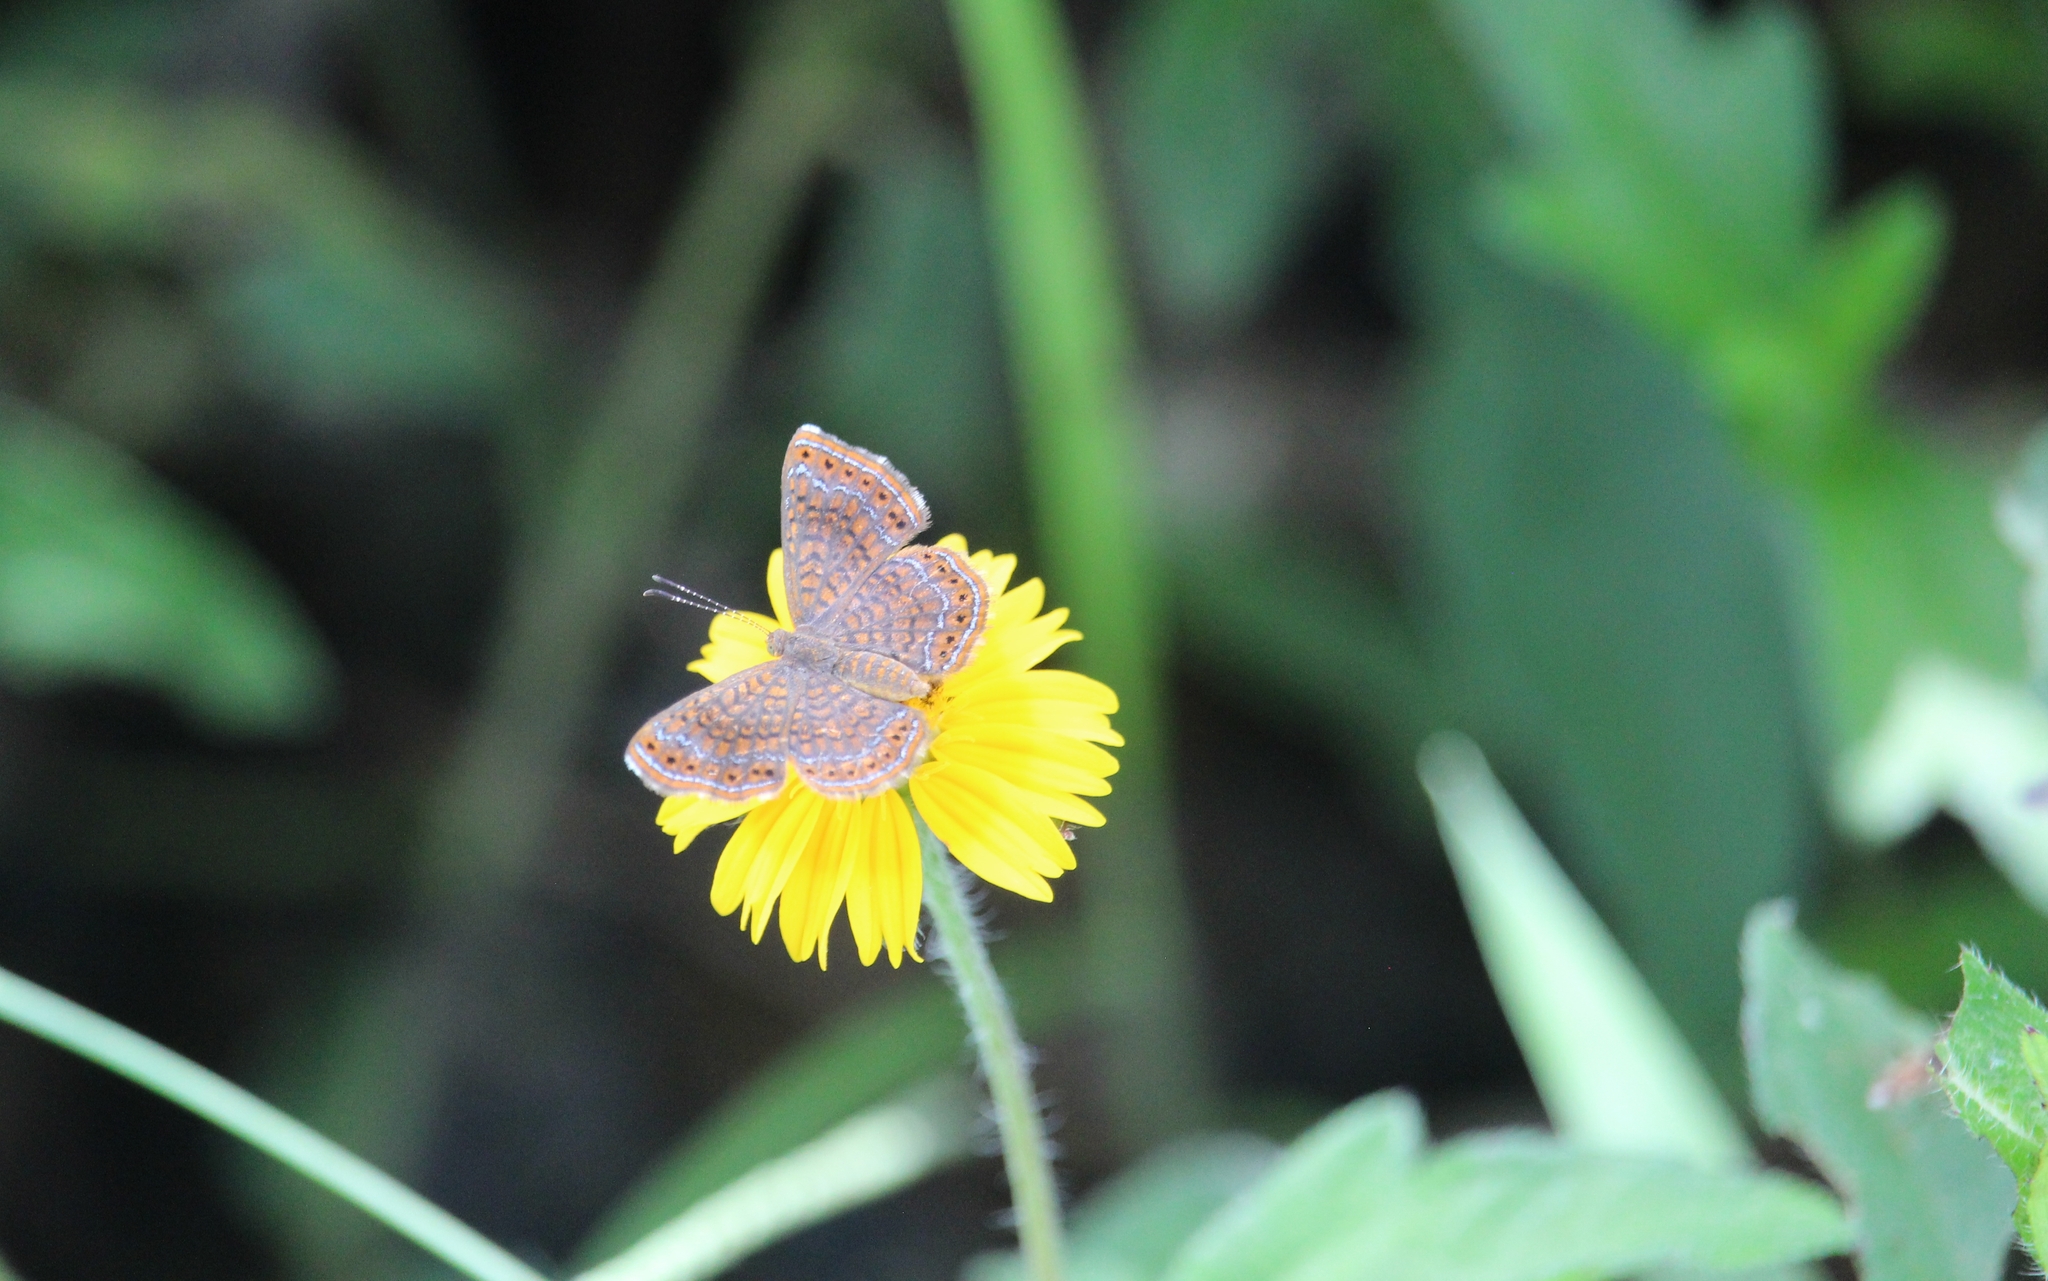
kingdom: Animalia
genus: Calephelis
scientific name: Calephelis perditalis
